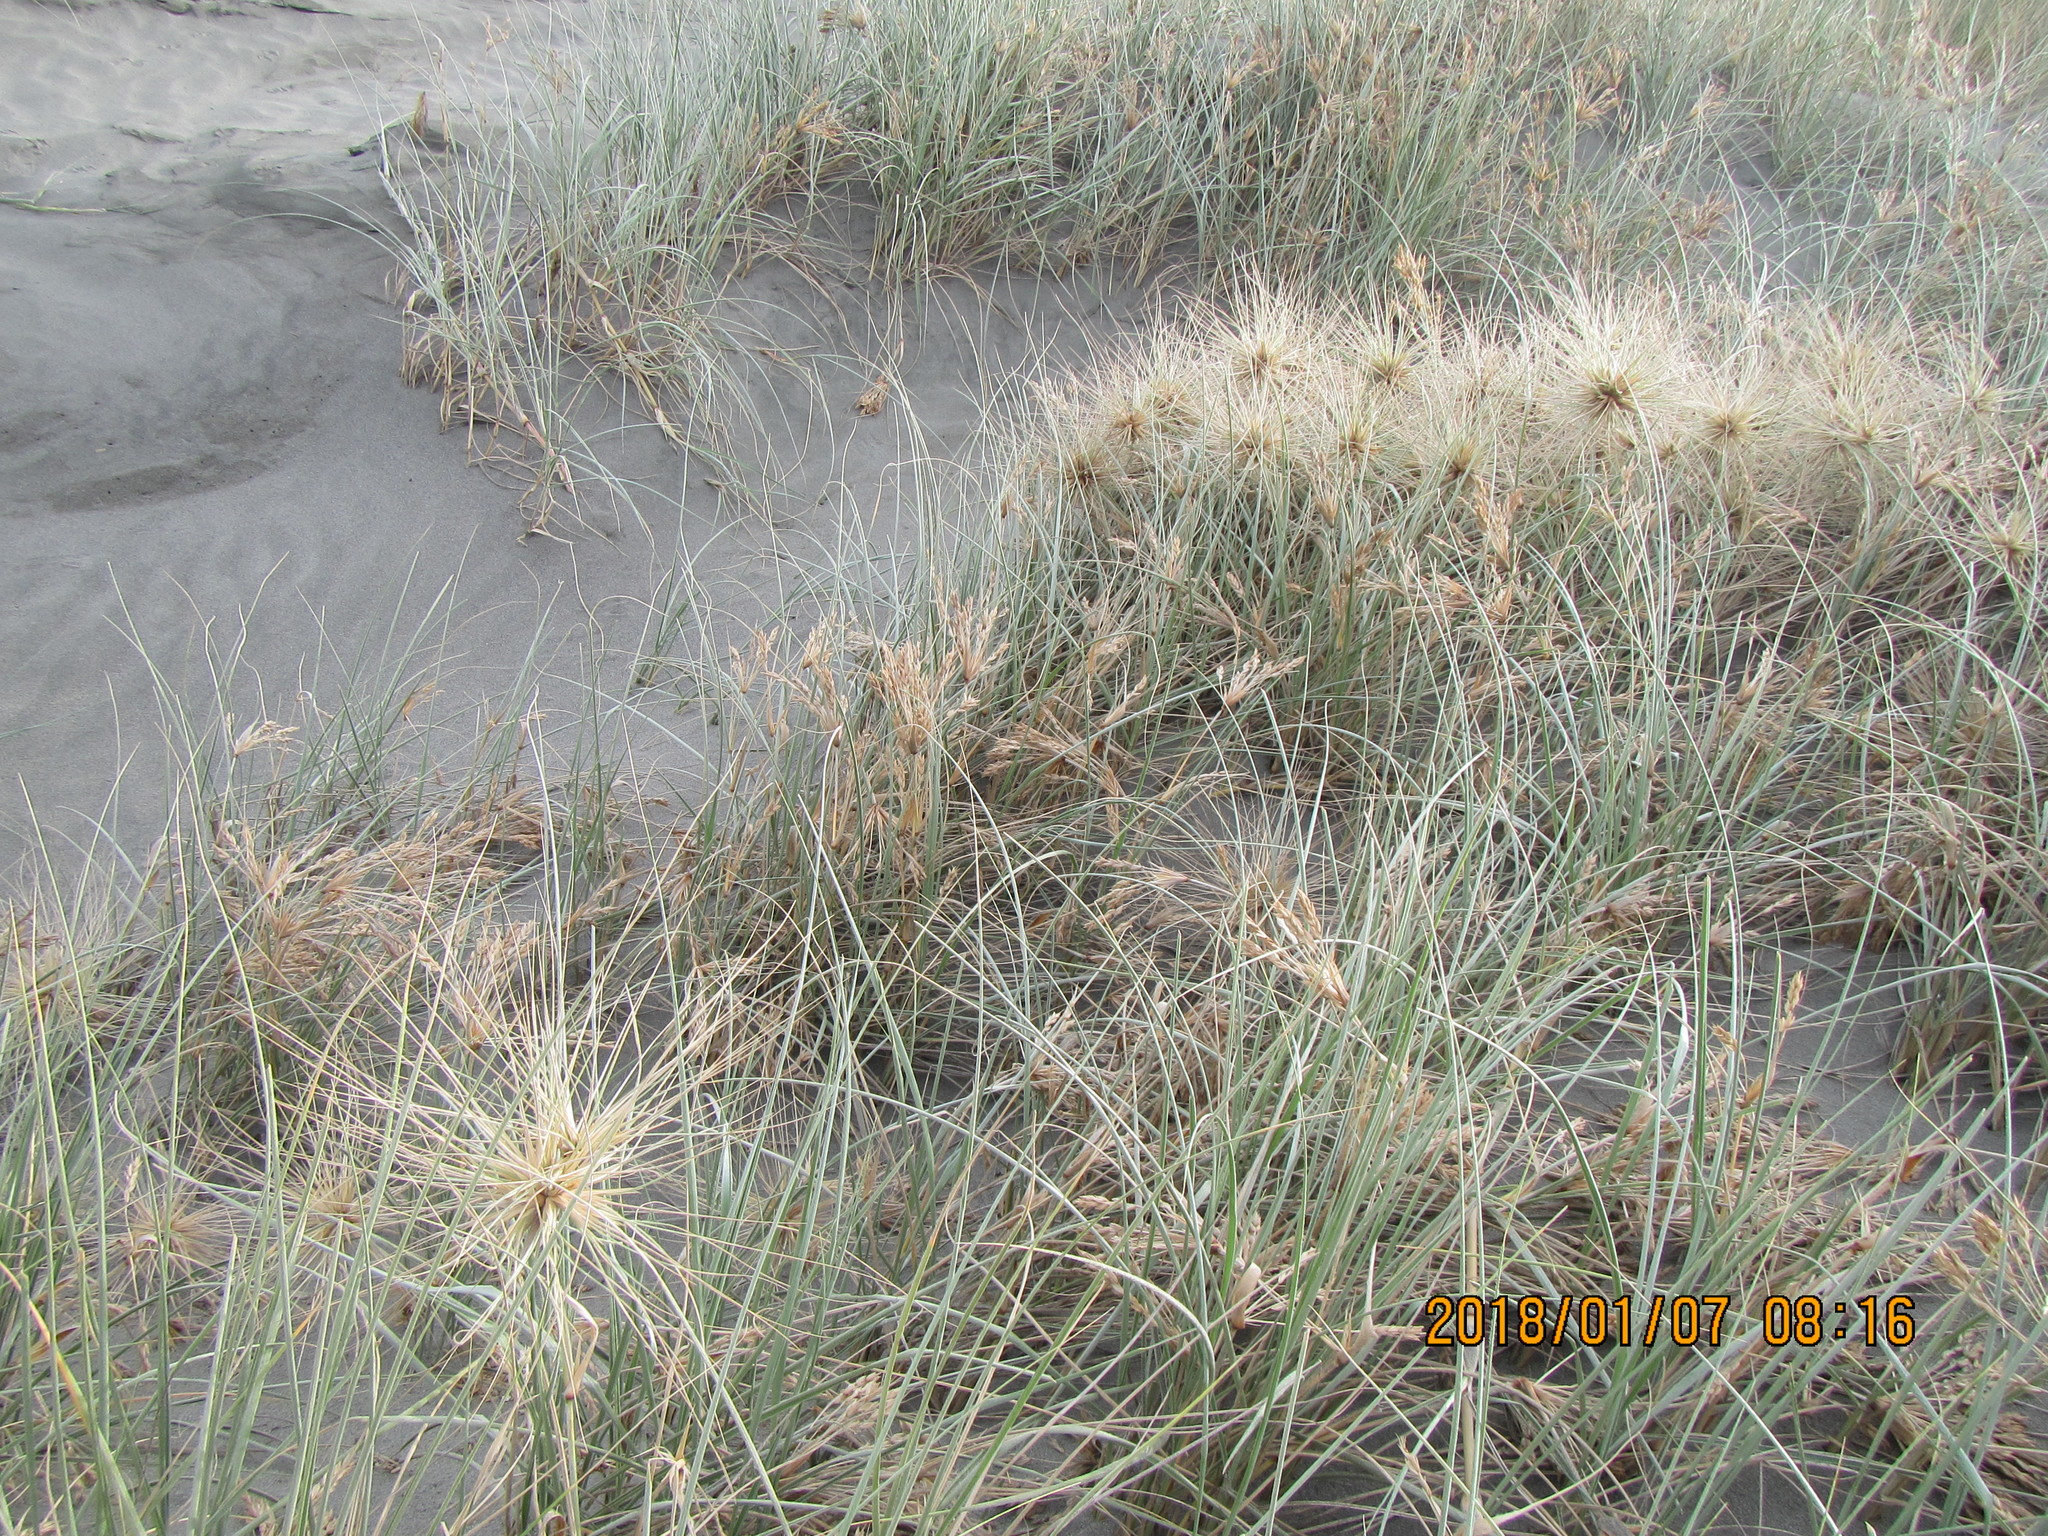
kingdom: Plantae
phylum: Tracheophyta
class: Liliopsida
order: Poales
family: Poaceae
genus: Spinifex
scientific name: Spinifex sericeus
